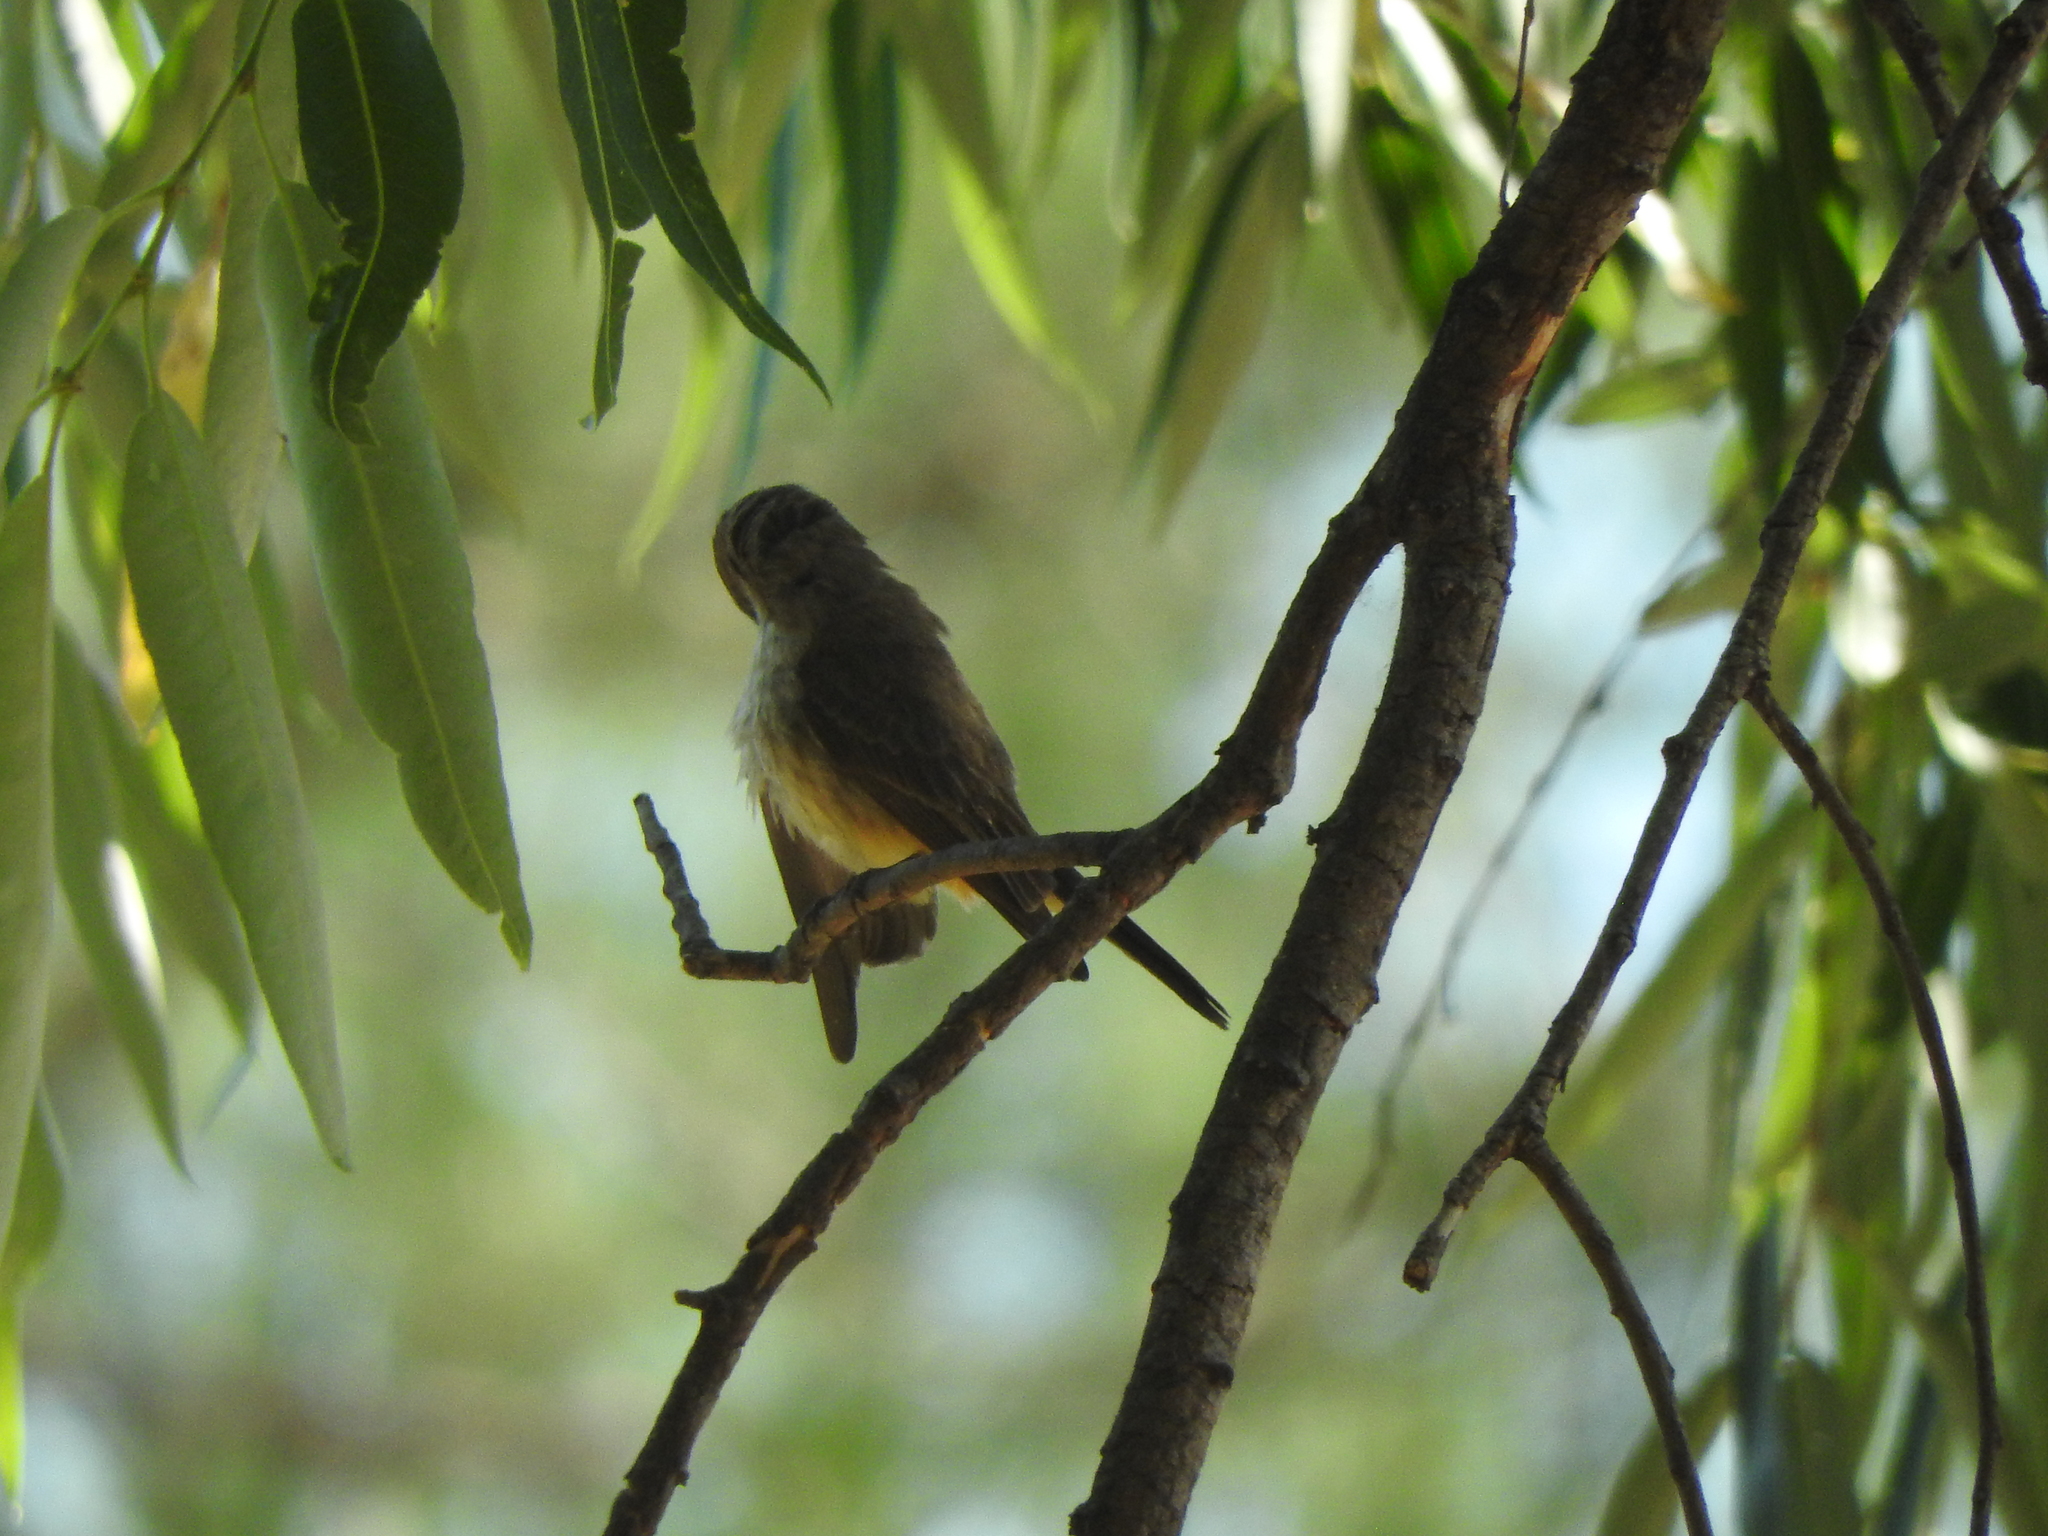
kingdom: Animalia
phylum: Chordata
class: Aves
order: Passeriformes
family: Tyrannidae
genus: Pyrocephalus
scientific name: Pyrocephalus rubinus
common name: Vermilion flycatcher
